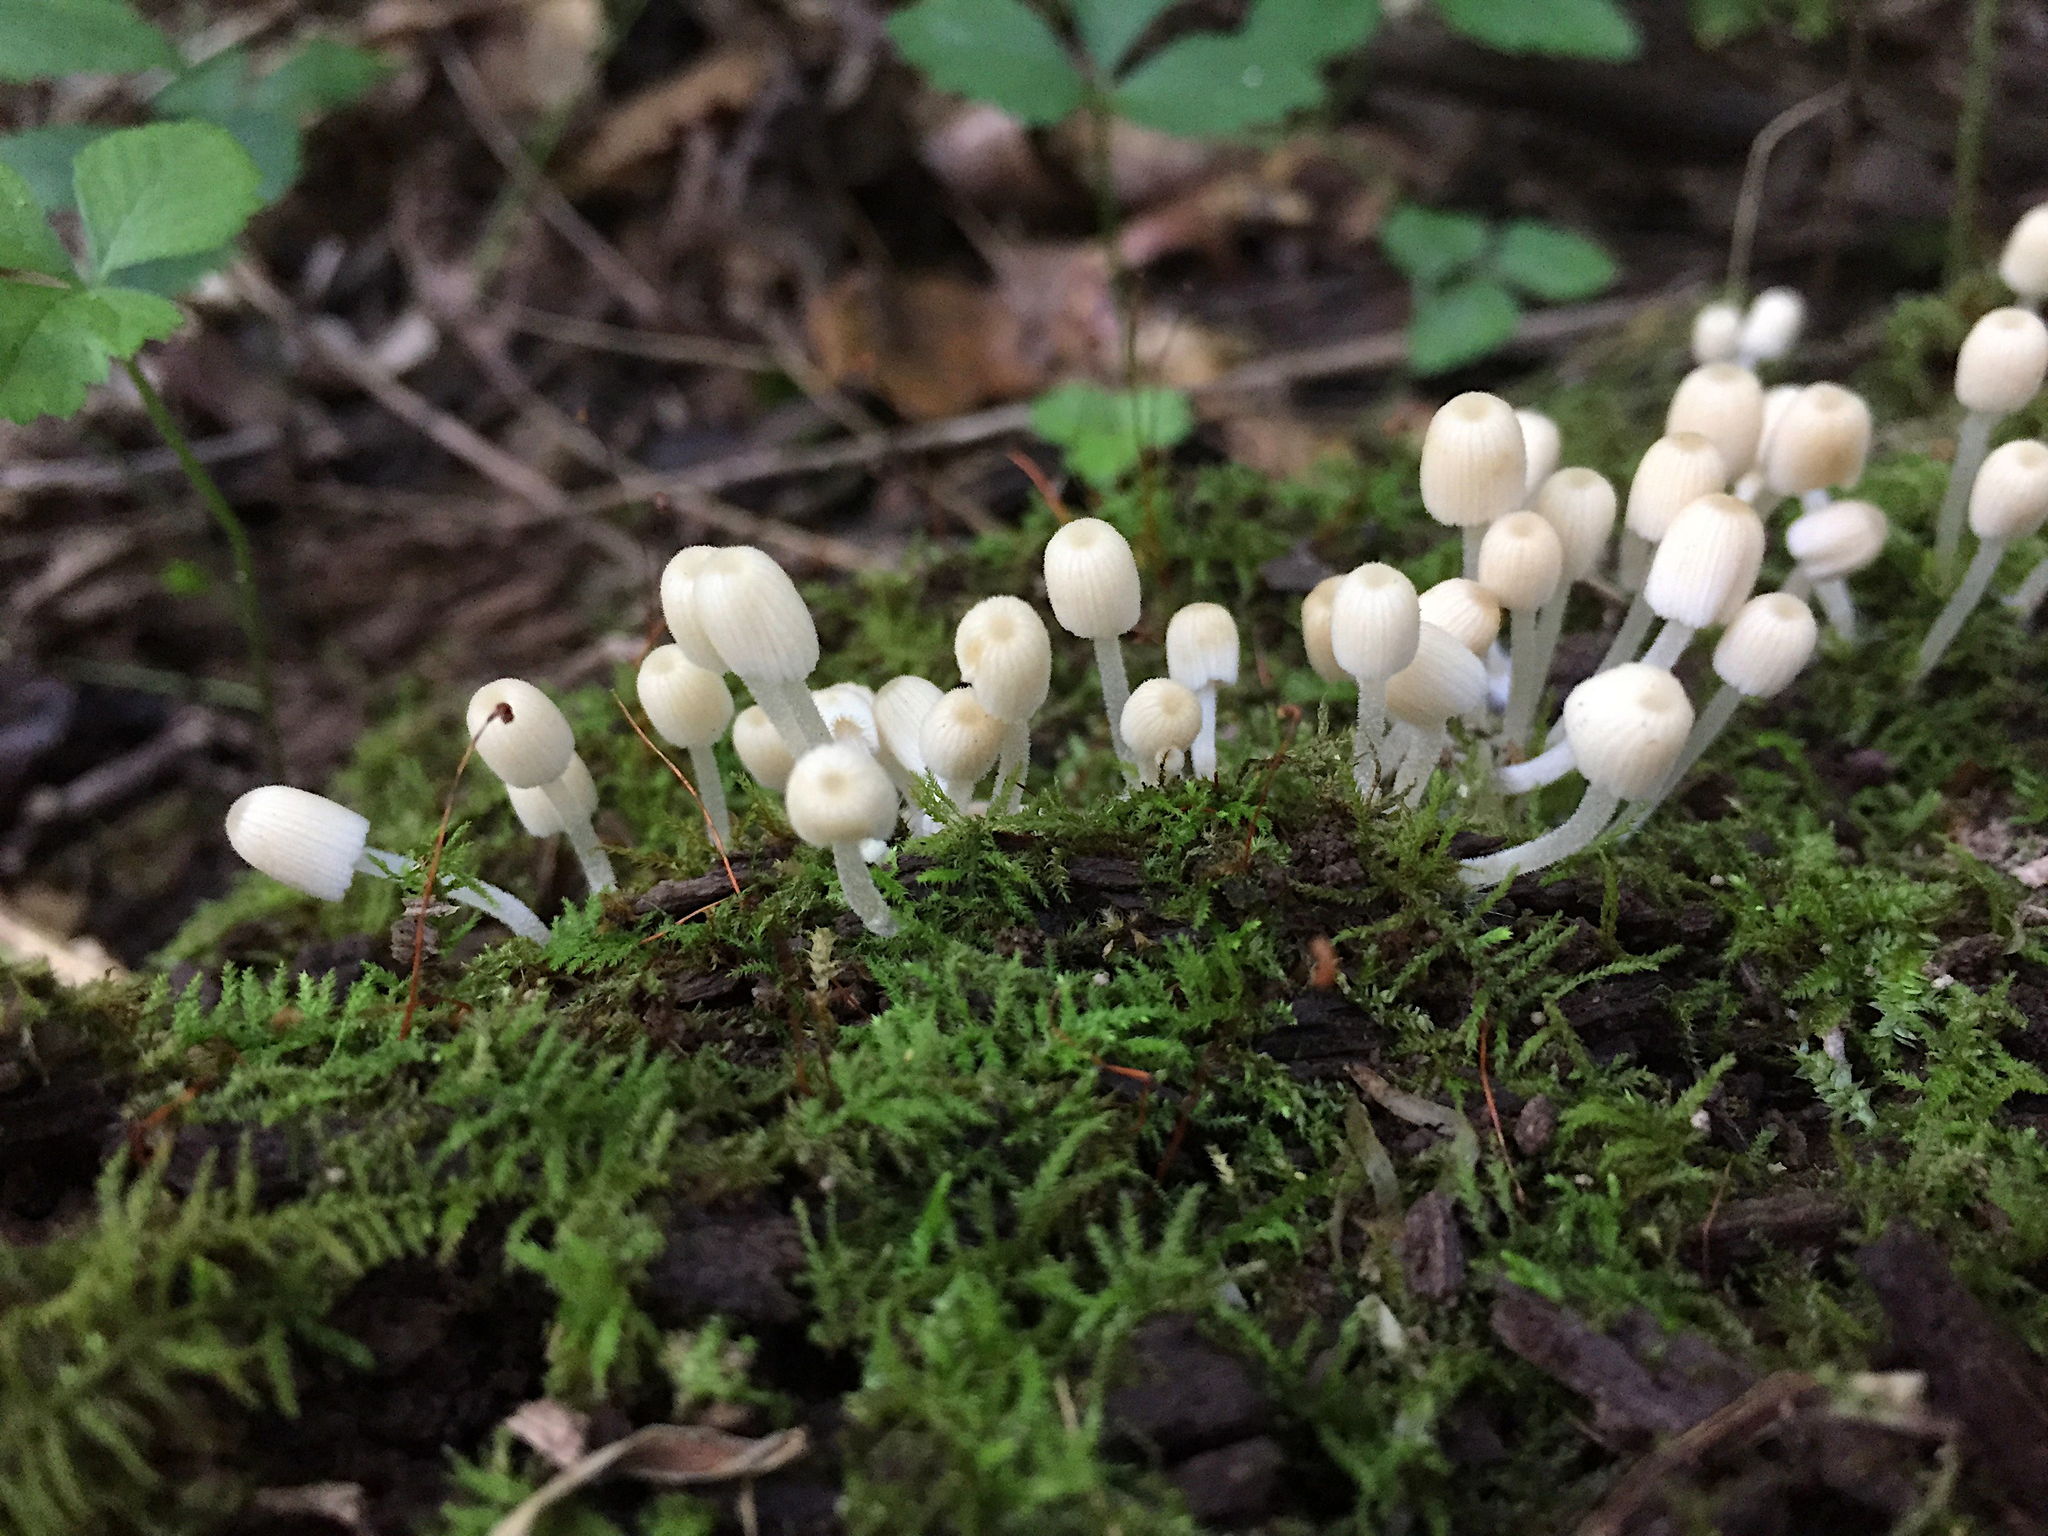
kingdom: Fungi
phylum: Basidiomycota
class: Agaricomycetes
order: Agaricales
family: Psathyrellaceae
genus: Coprinellus
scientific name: Coprinellus disseminatus
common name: Fairies' bonnets
